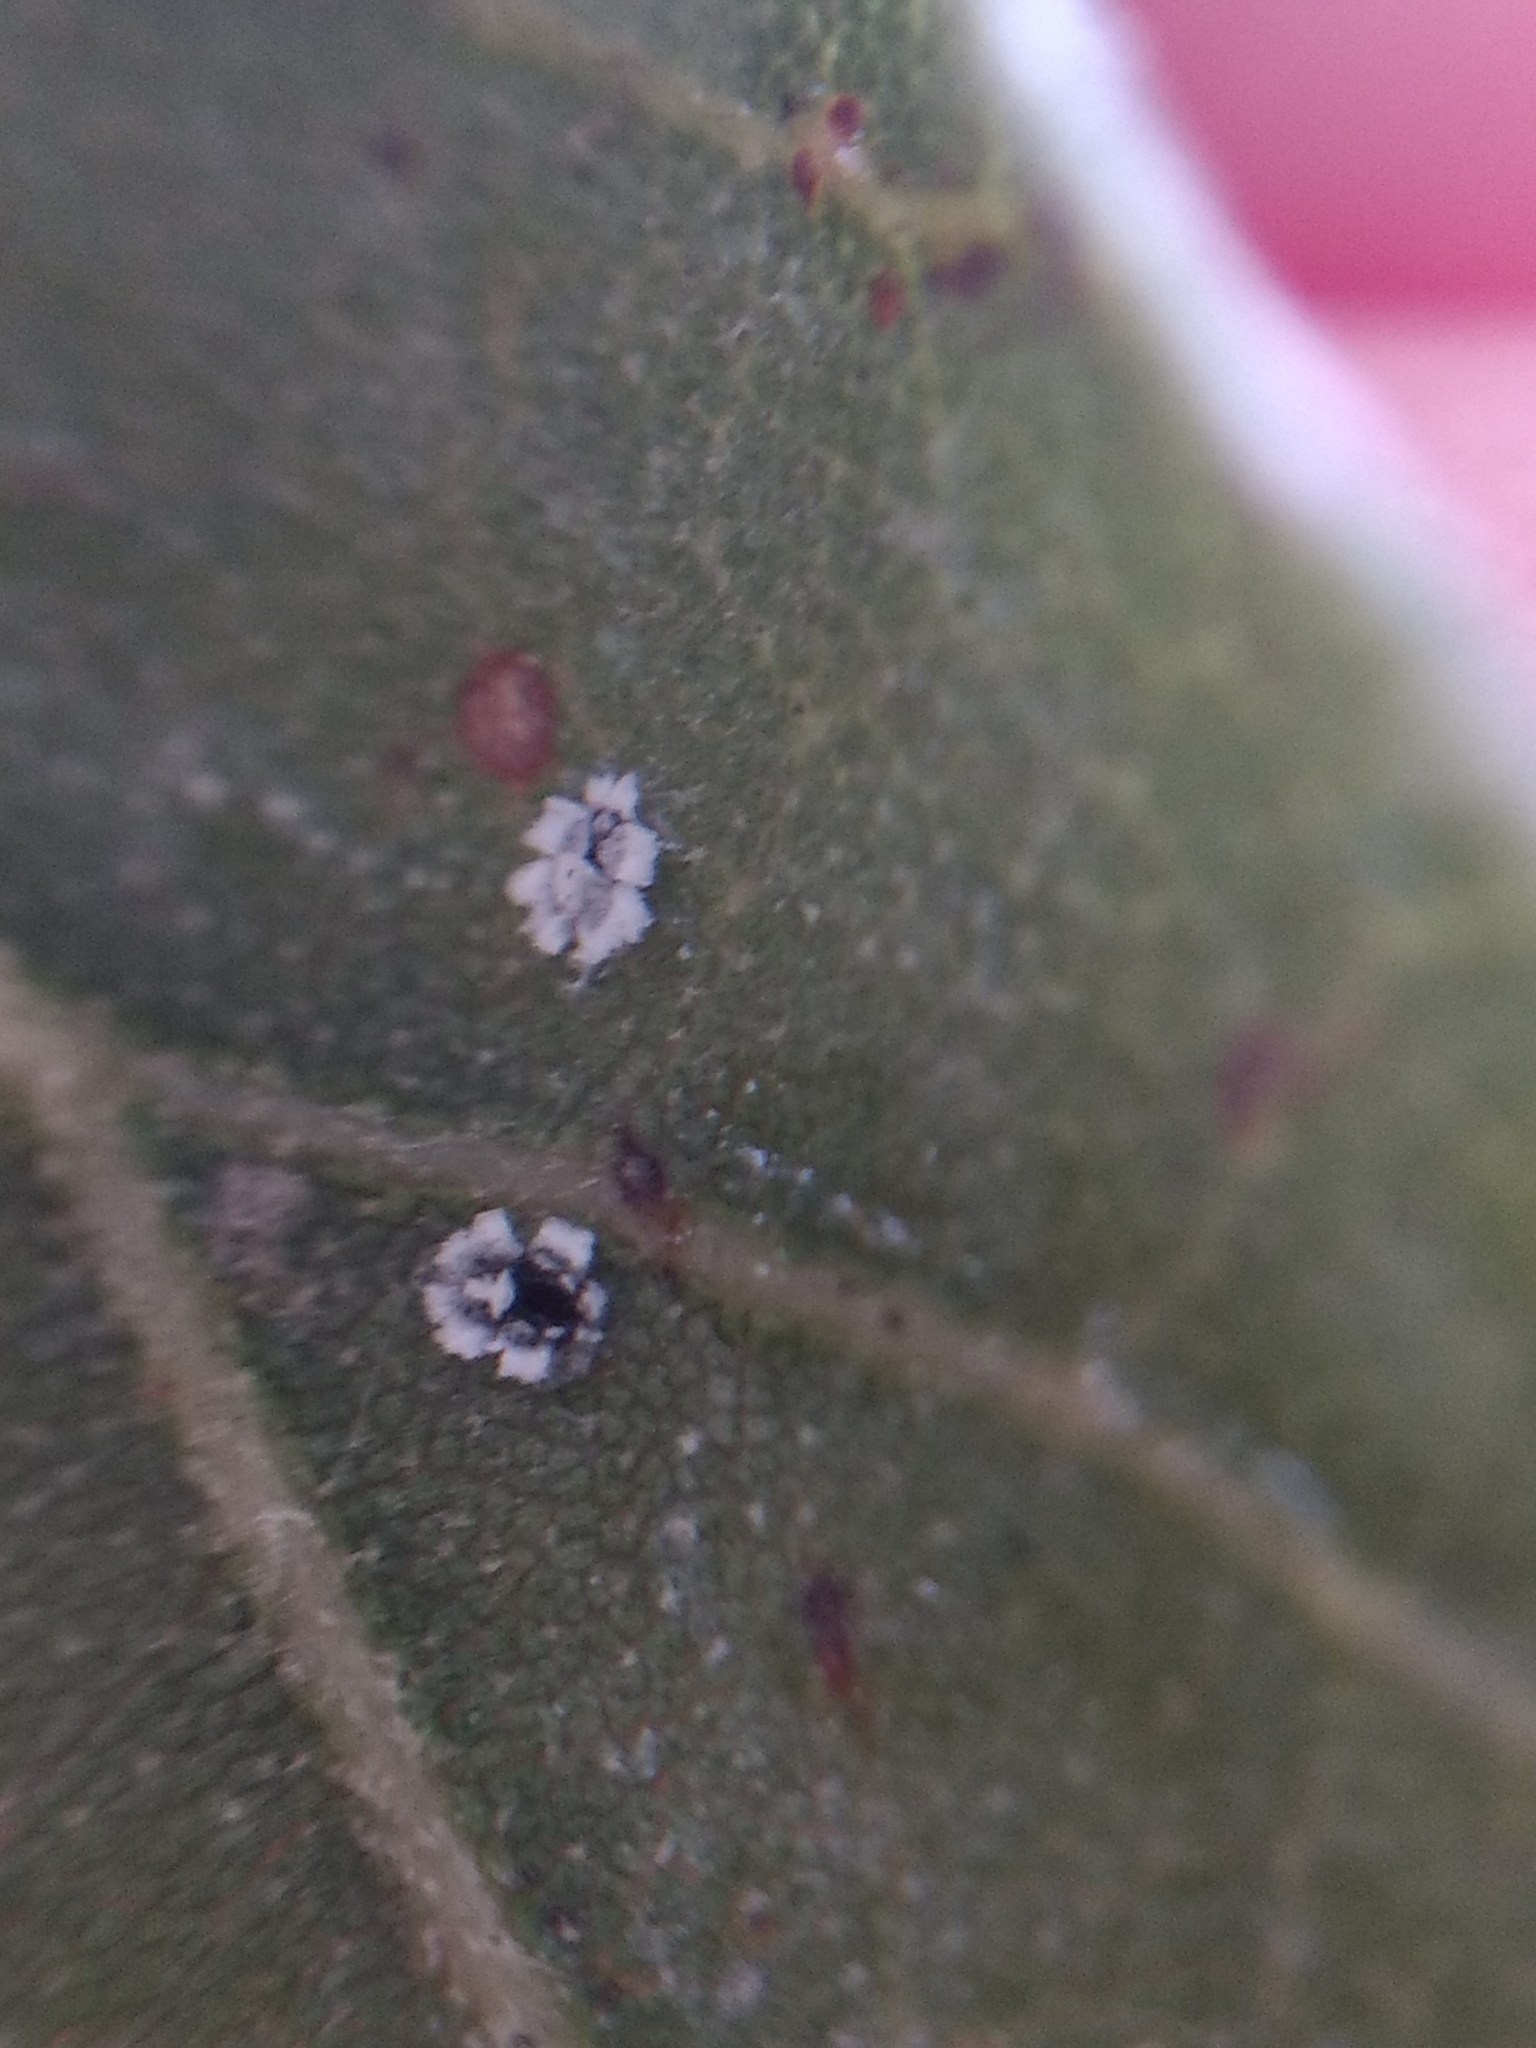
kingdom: Animalia
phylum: Arthropoda
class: Insecta
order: Hemiptera
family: Aleyrodidae
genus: Aleuroplatus
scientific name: Aleuroplatus coronata
